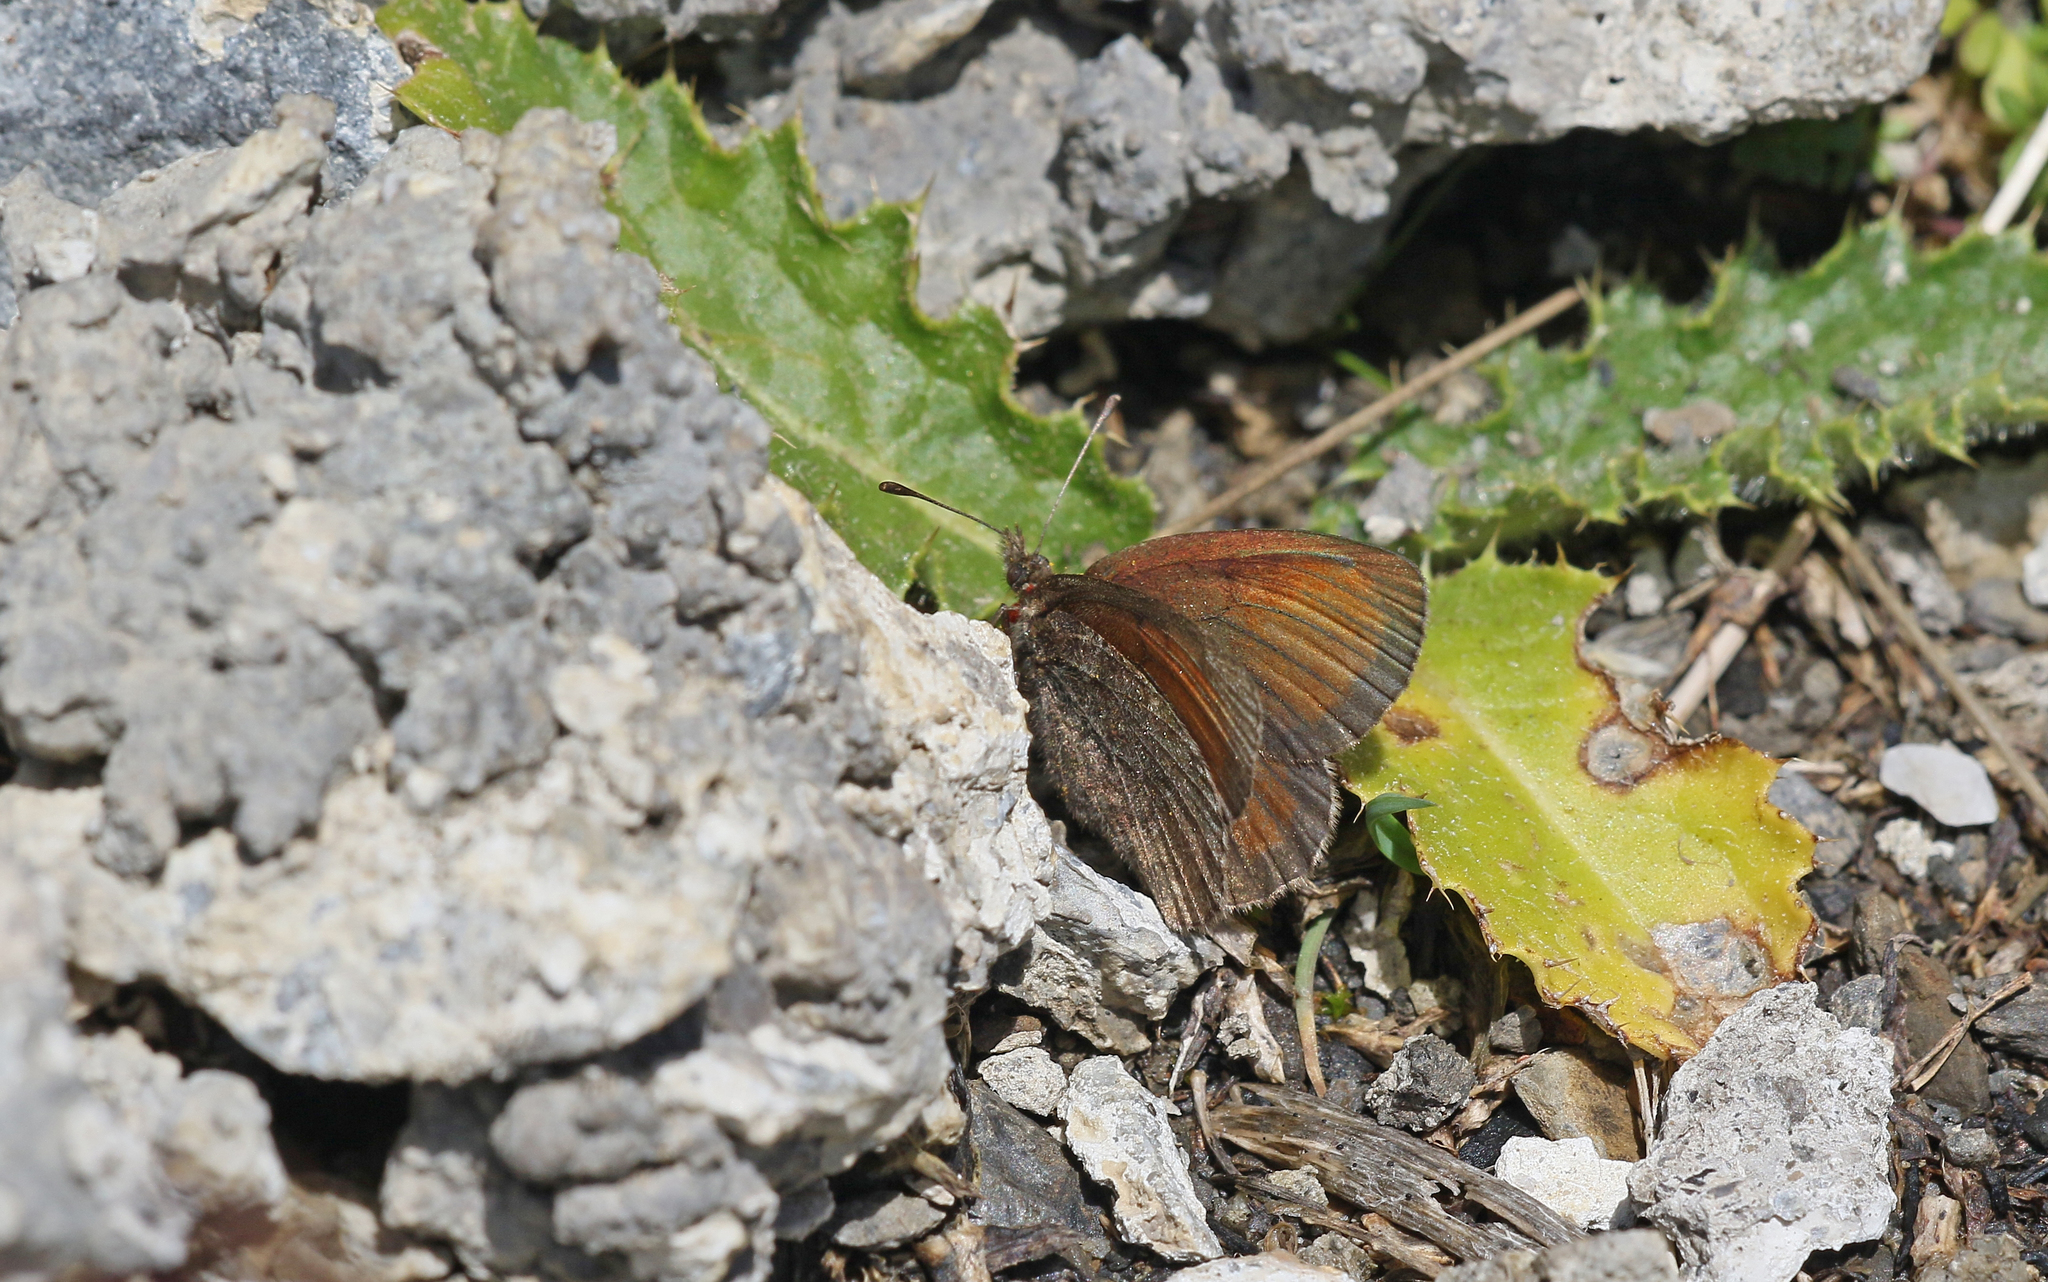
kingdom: Animalia
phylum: Arthropoda
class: Insecta
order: Lepidoptera
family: Nymphalidae
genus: Erebia
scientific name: Erebia gorge
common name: Silky ringlet
